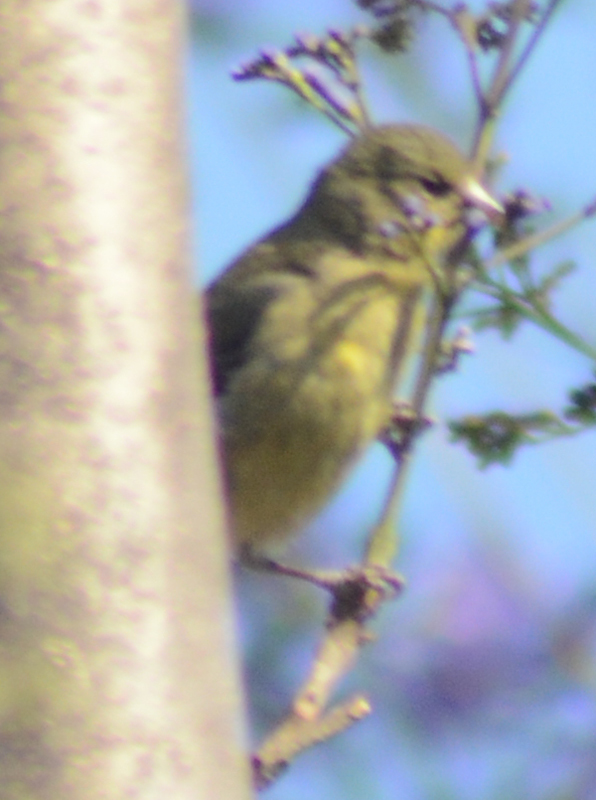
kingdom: Animalia
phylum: Chordata
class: Aves
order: Passeriformes
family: Fringillidae
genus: Spinus
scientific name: Spinus psaltria
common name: Lesser goldfinch
